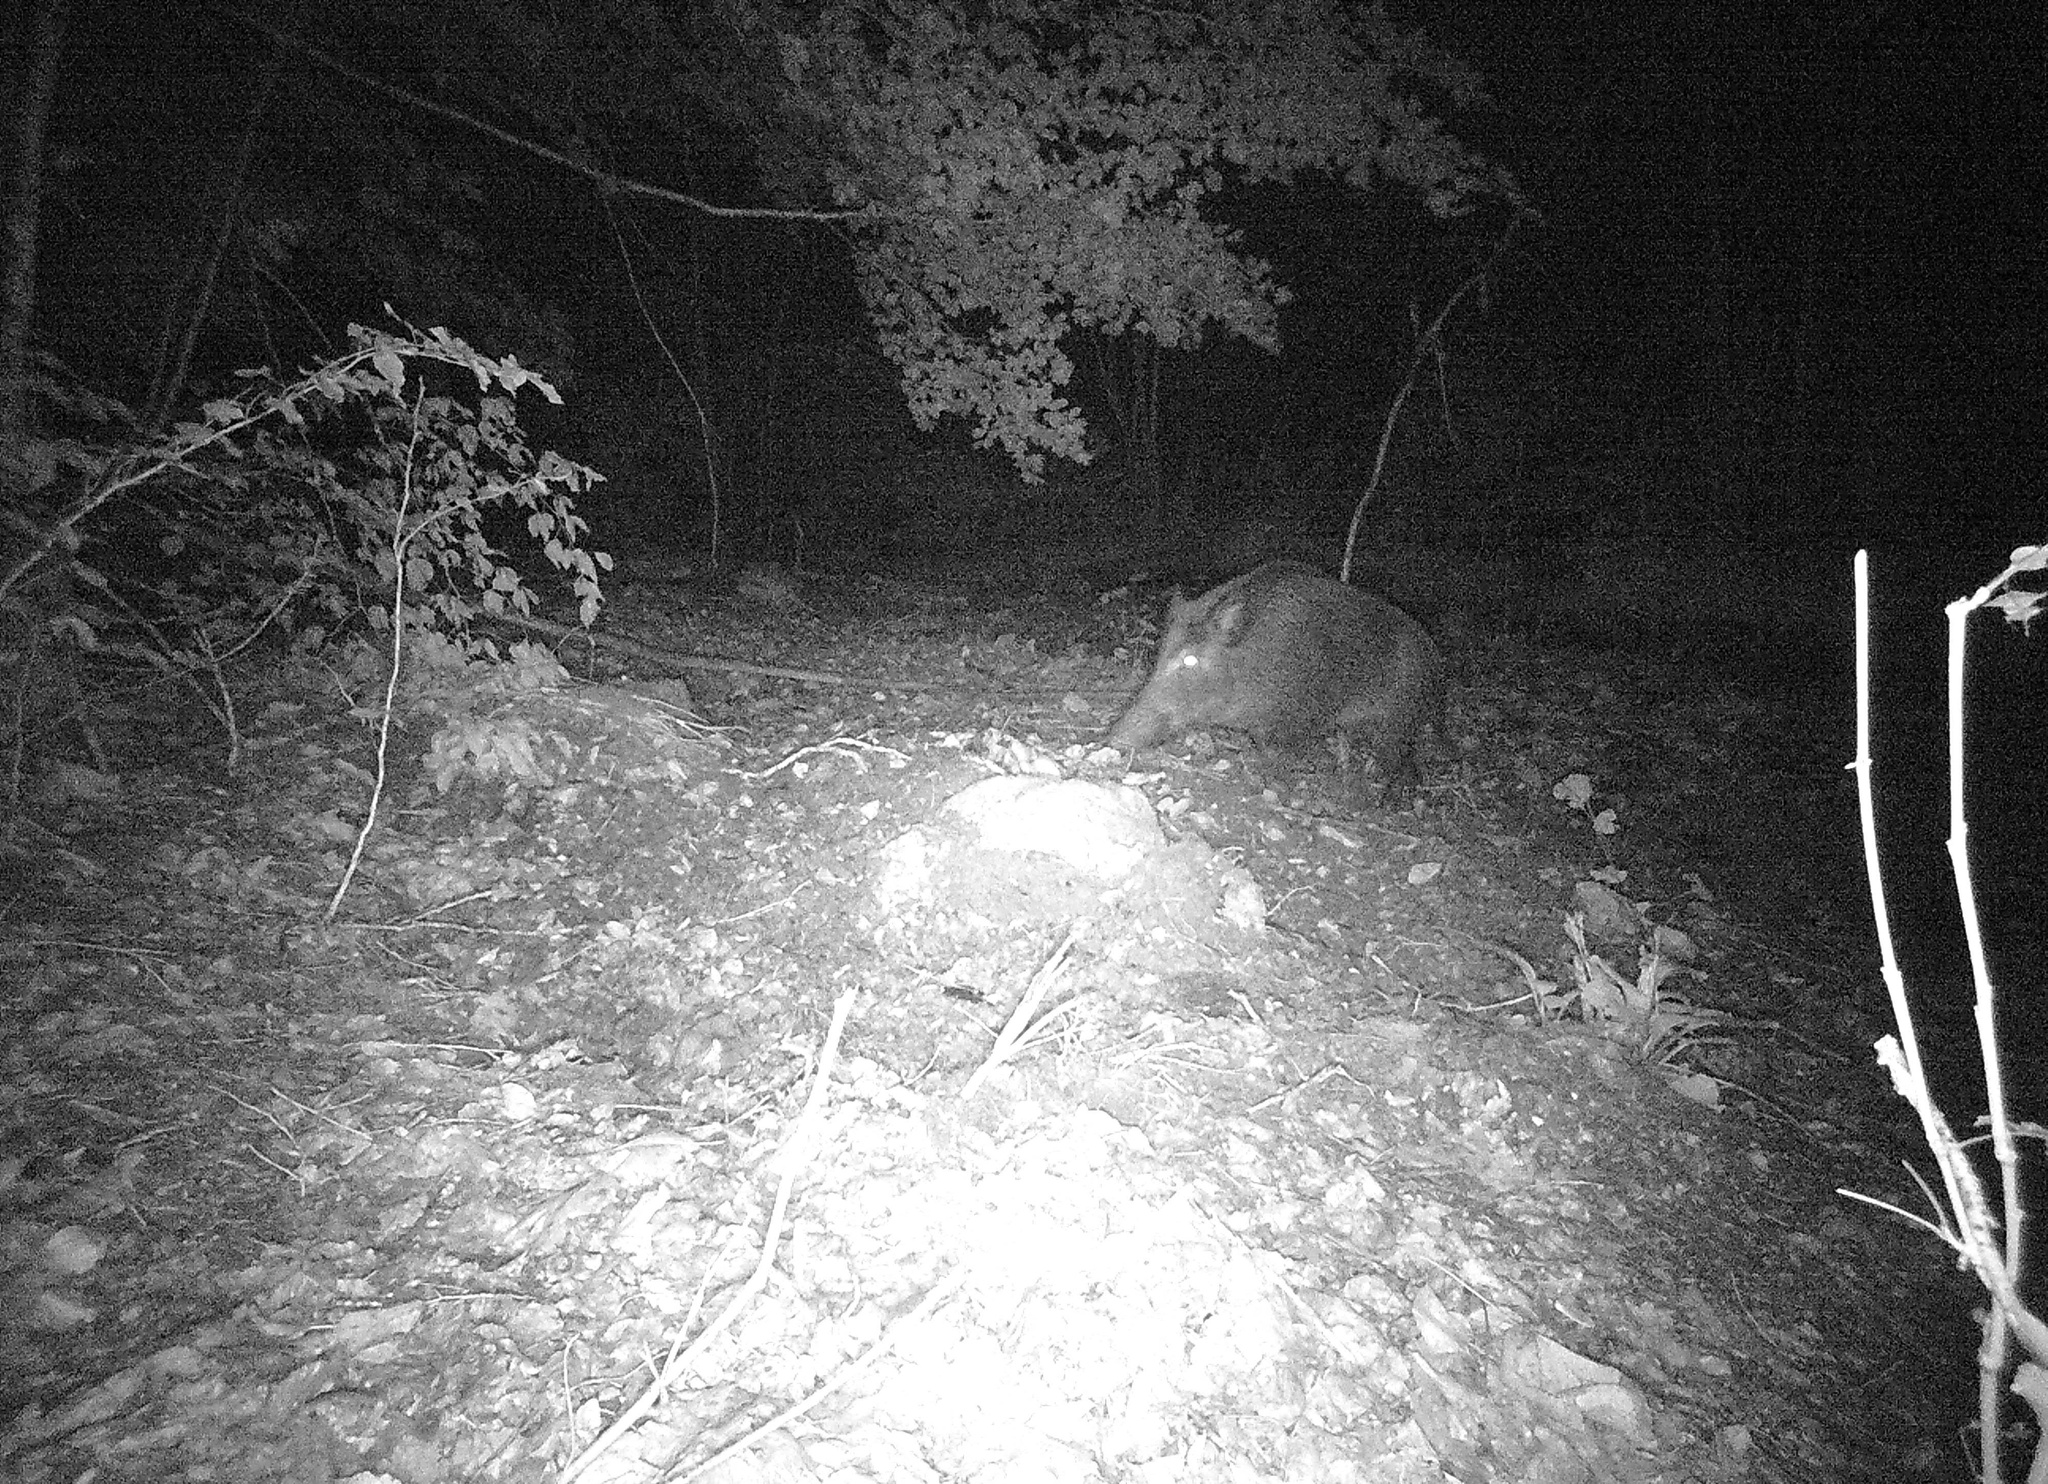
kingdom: Animalia
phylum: Chordata
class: Mammalia
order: Artiodactyla
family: Suidae
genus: Sus
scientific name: Sus scrofa
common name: Wild boar
